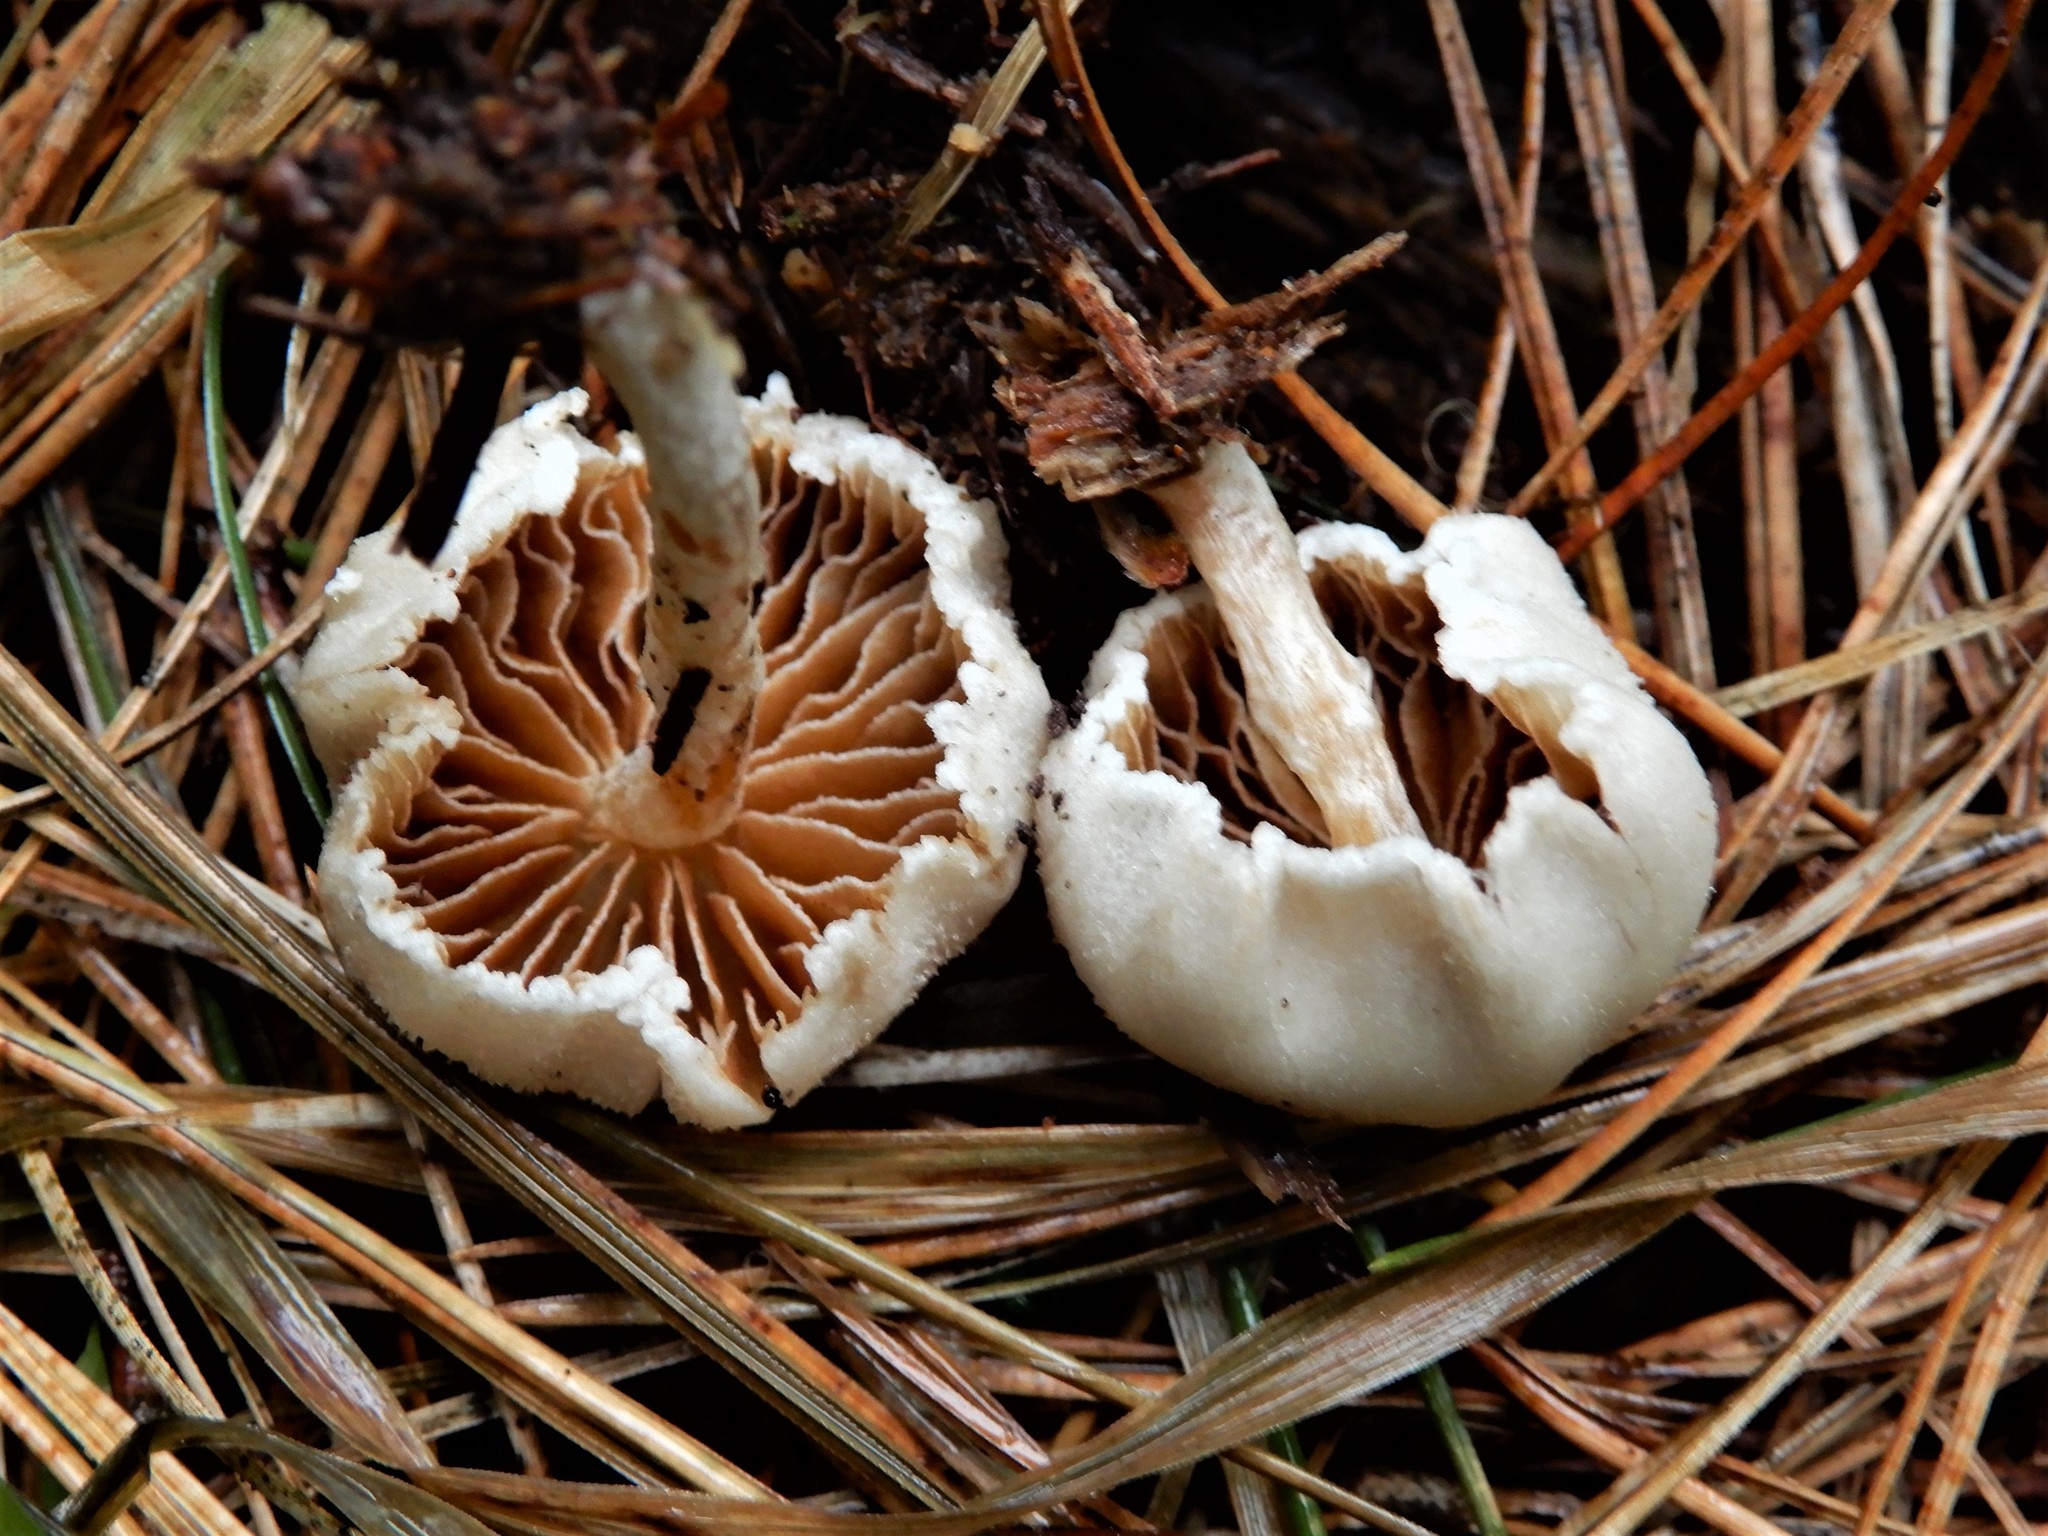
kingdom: Fungi
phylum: Basidiomycota
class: Agaricomycetes
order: Agaricales
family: Bolbitiaceae
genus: Tympanella
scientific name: Tympanella galanthina
